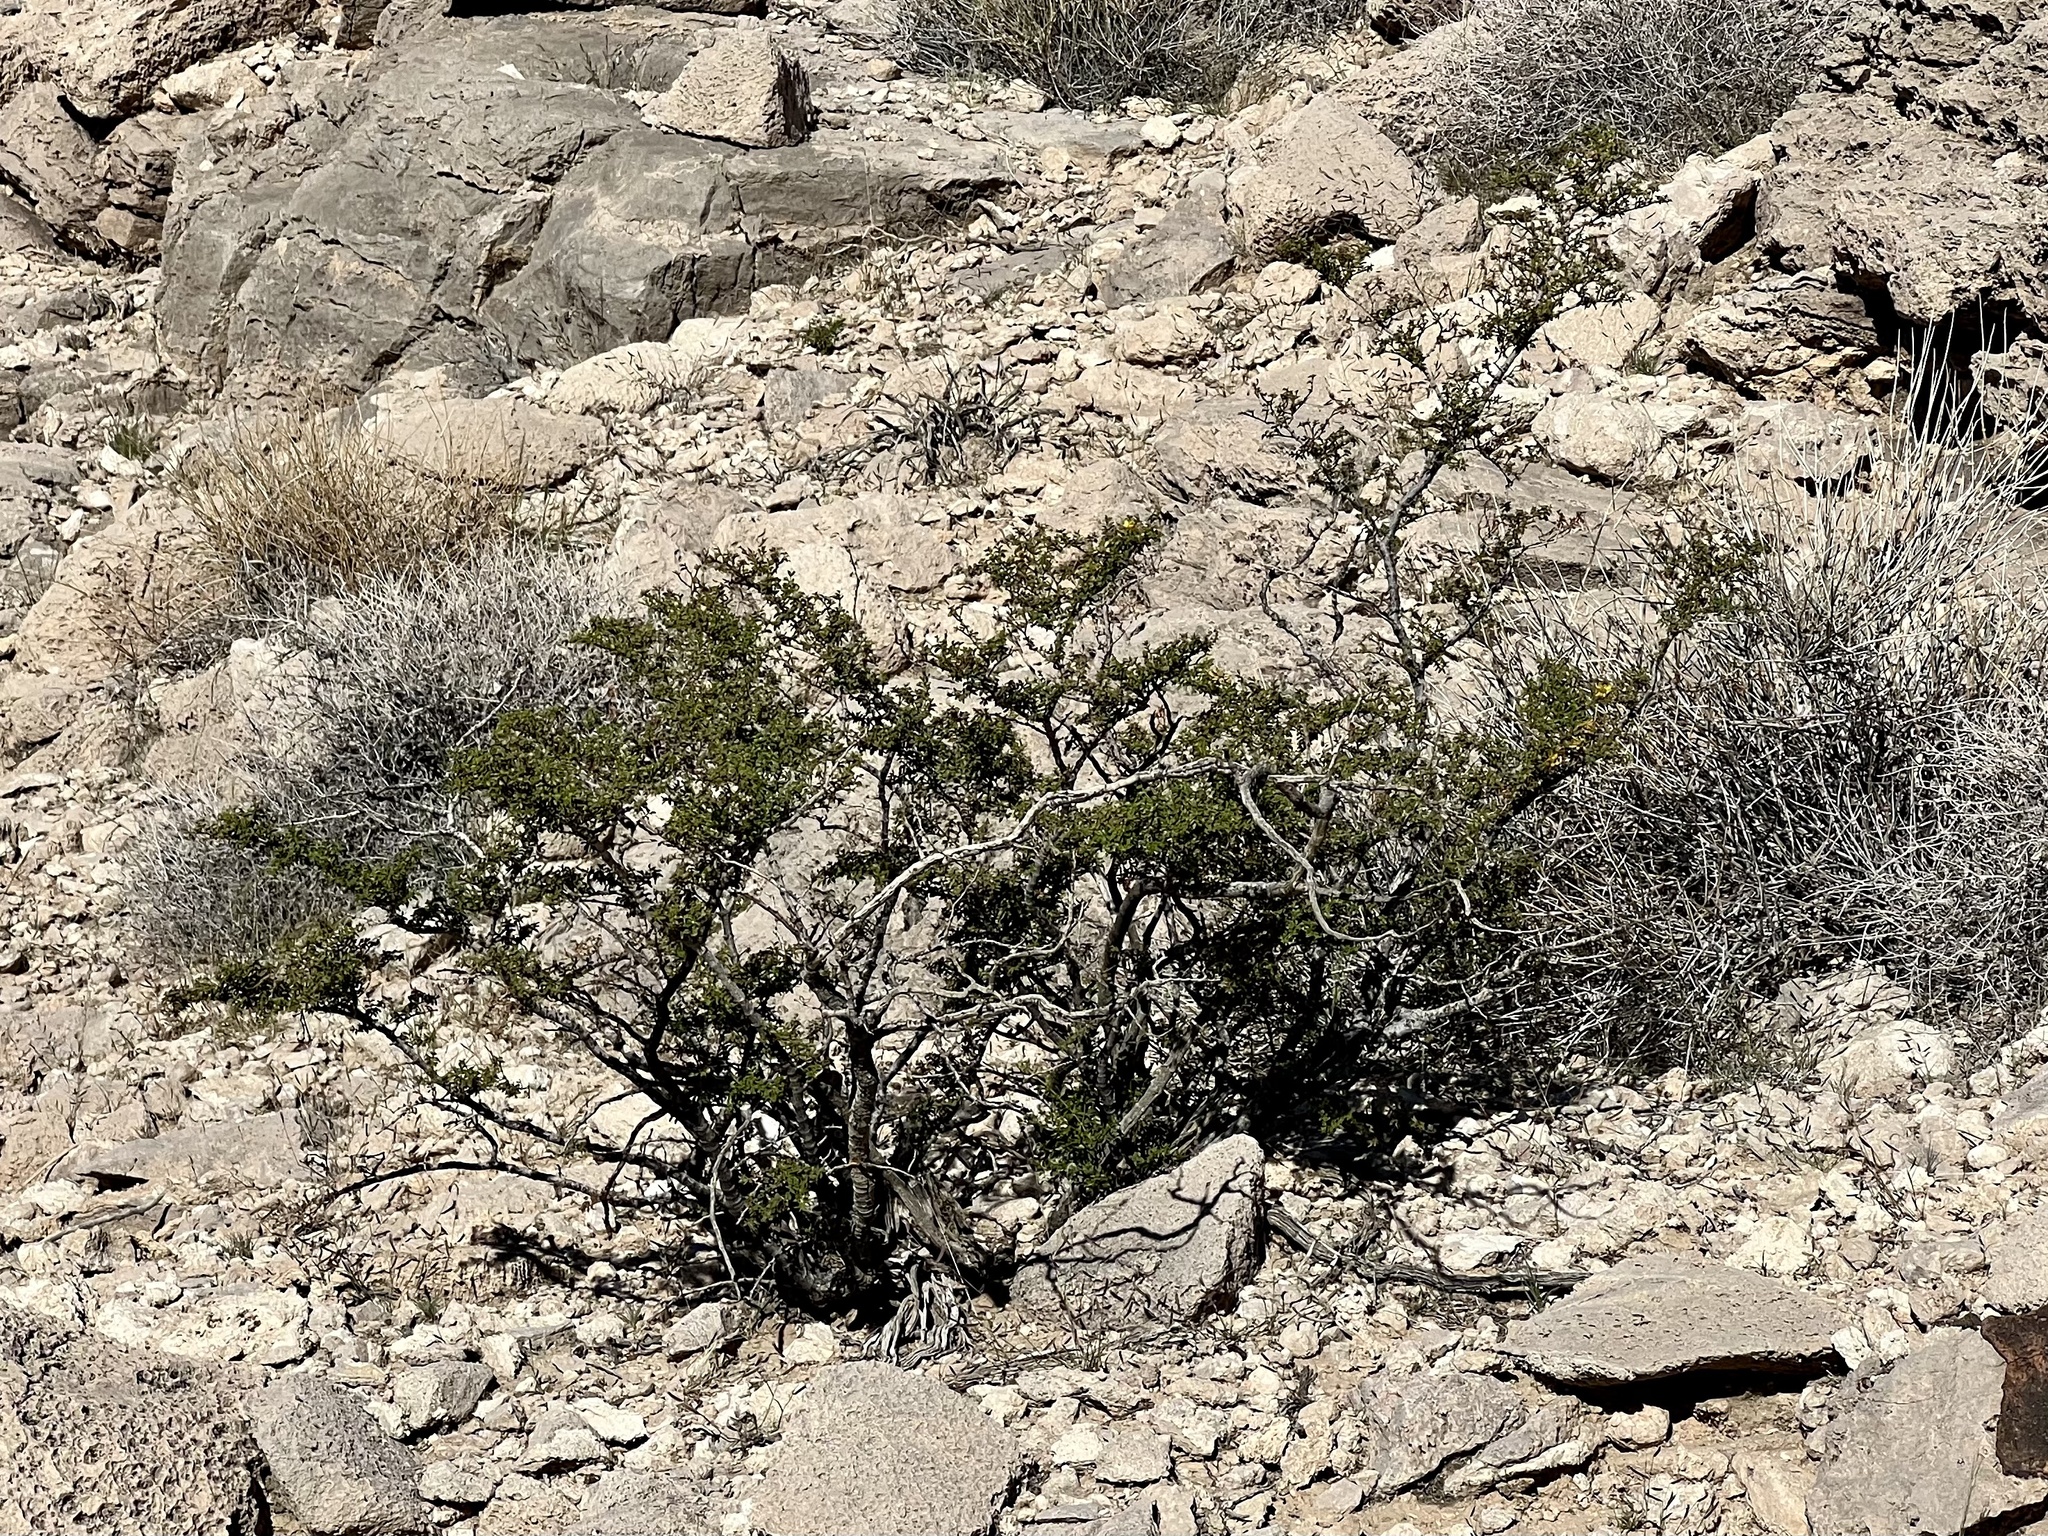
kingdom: Plantae
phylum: Tracheophyta
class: Magnoliopsida
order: Zygophyllales
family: Zygophyllaceae
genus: Larrea
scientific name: Larrea tridentata
